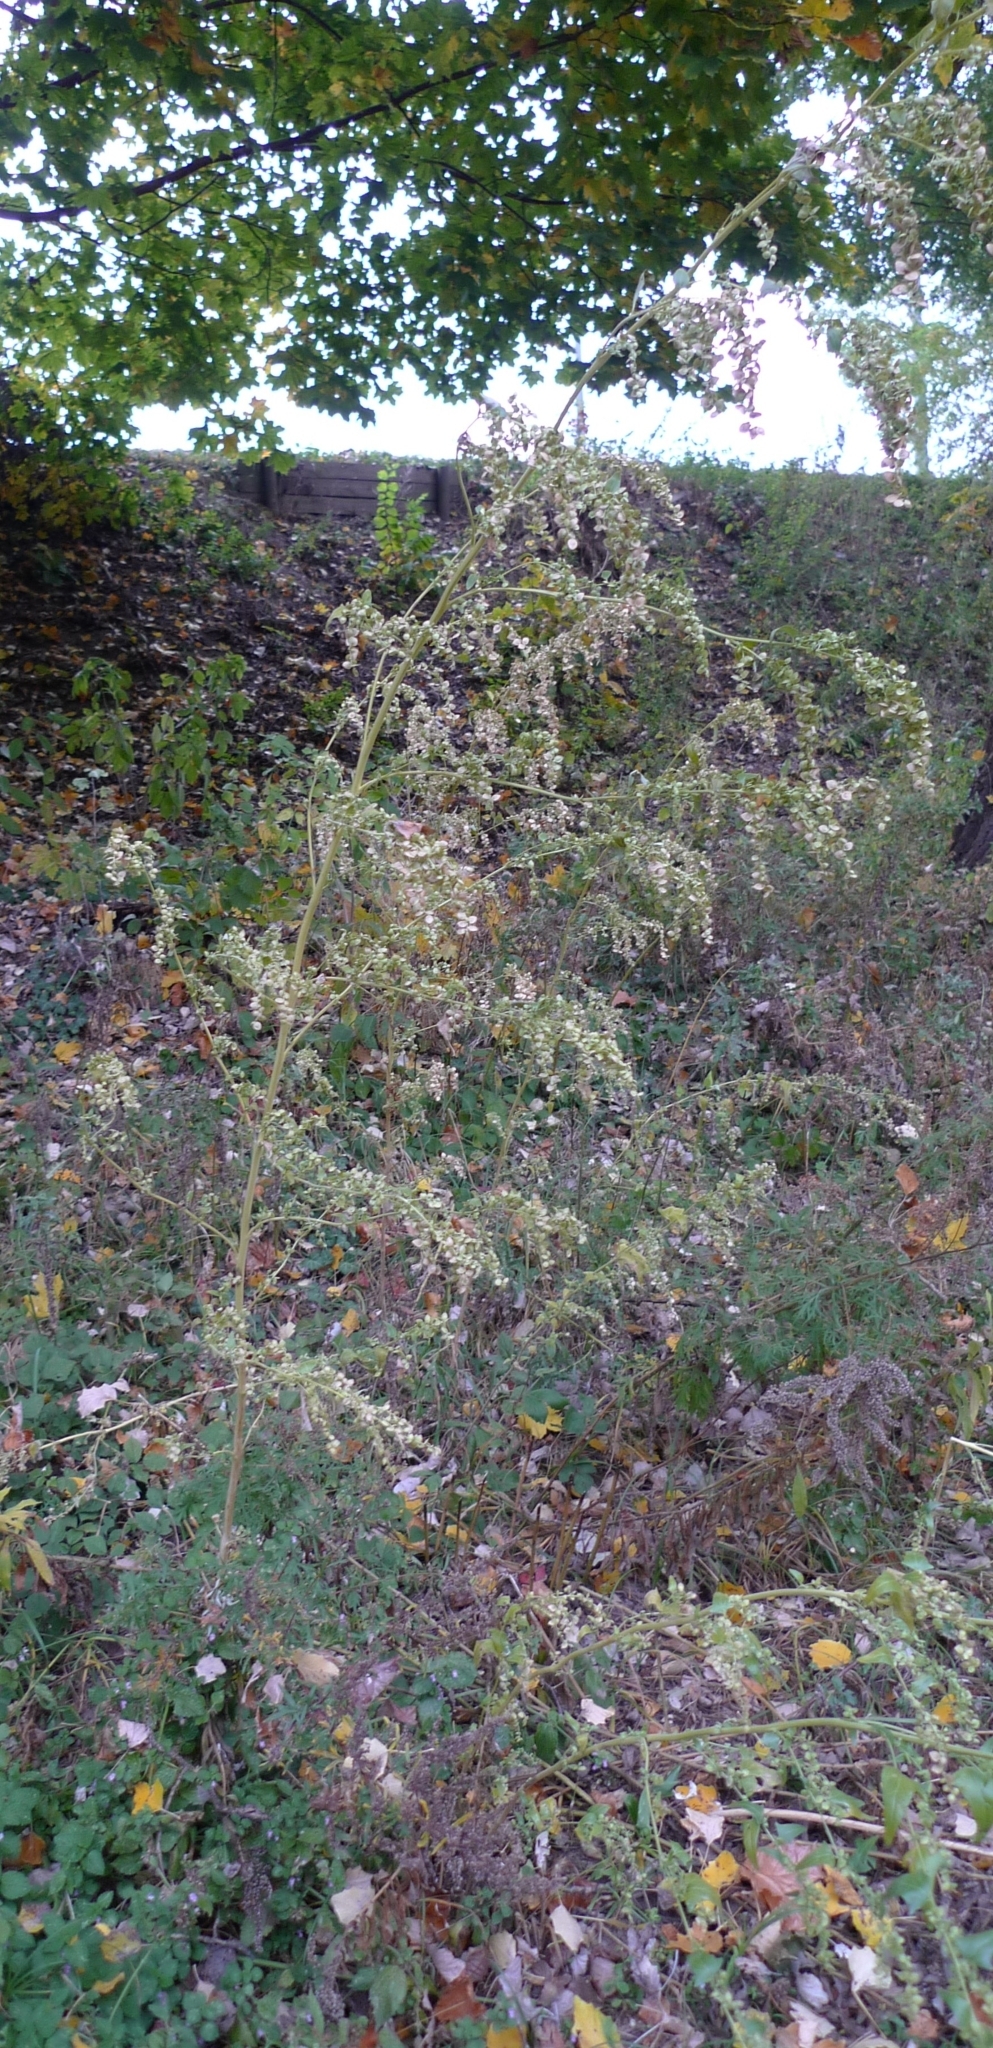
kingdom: Plantae
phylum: Tracheophyta
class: Magnoliopsida
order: Caryophyllales
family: Amaranthaceae
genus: Atriplex
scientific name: Atriplex sagittata
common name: Purple orache
